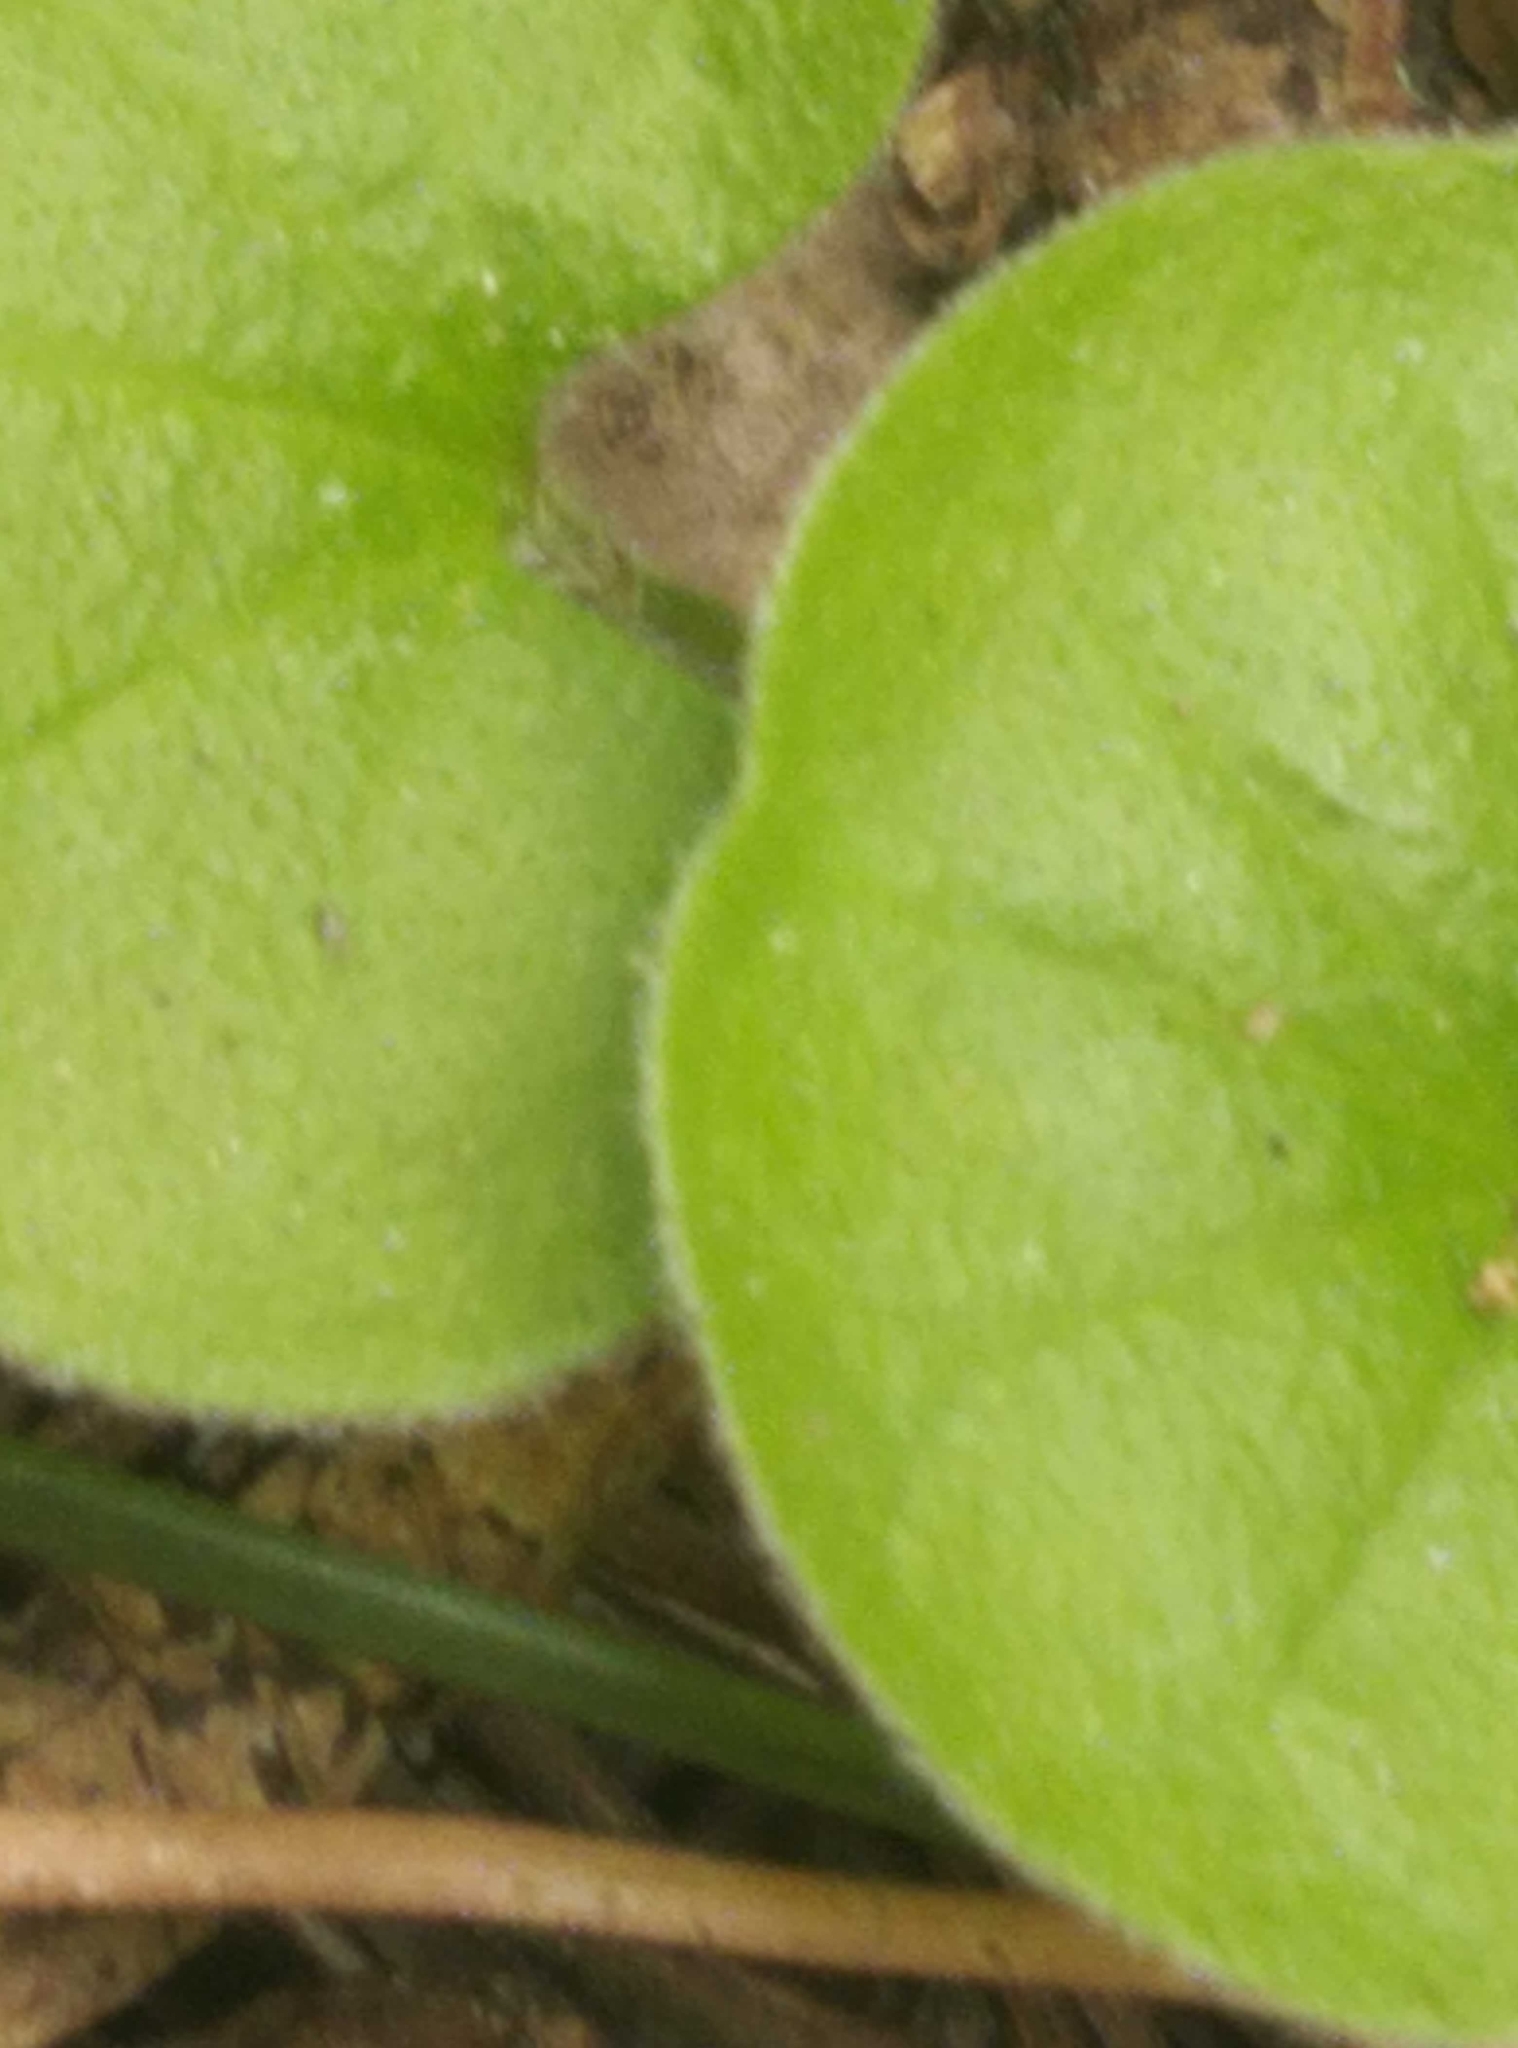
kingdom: Plantae
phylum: Tracheophyta
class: Magnoliopsida
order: Solanales
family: Convolvulaceae
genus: Dichondra
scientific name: Dichondra repens
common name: Kidneyweed
